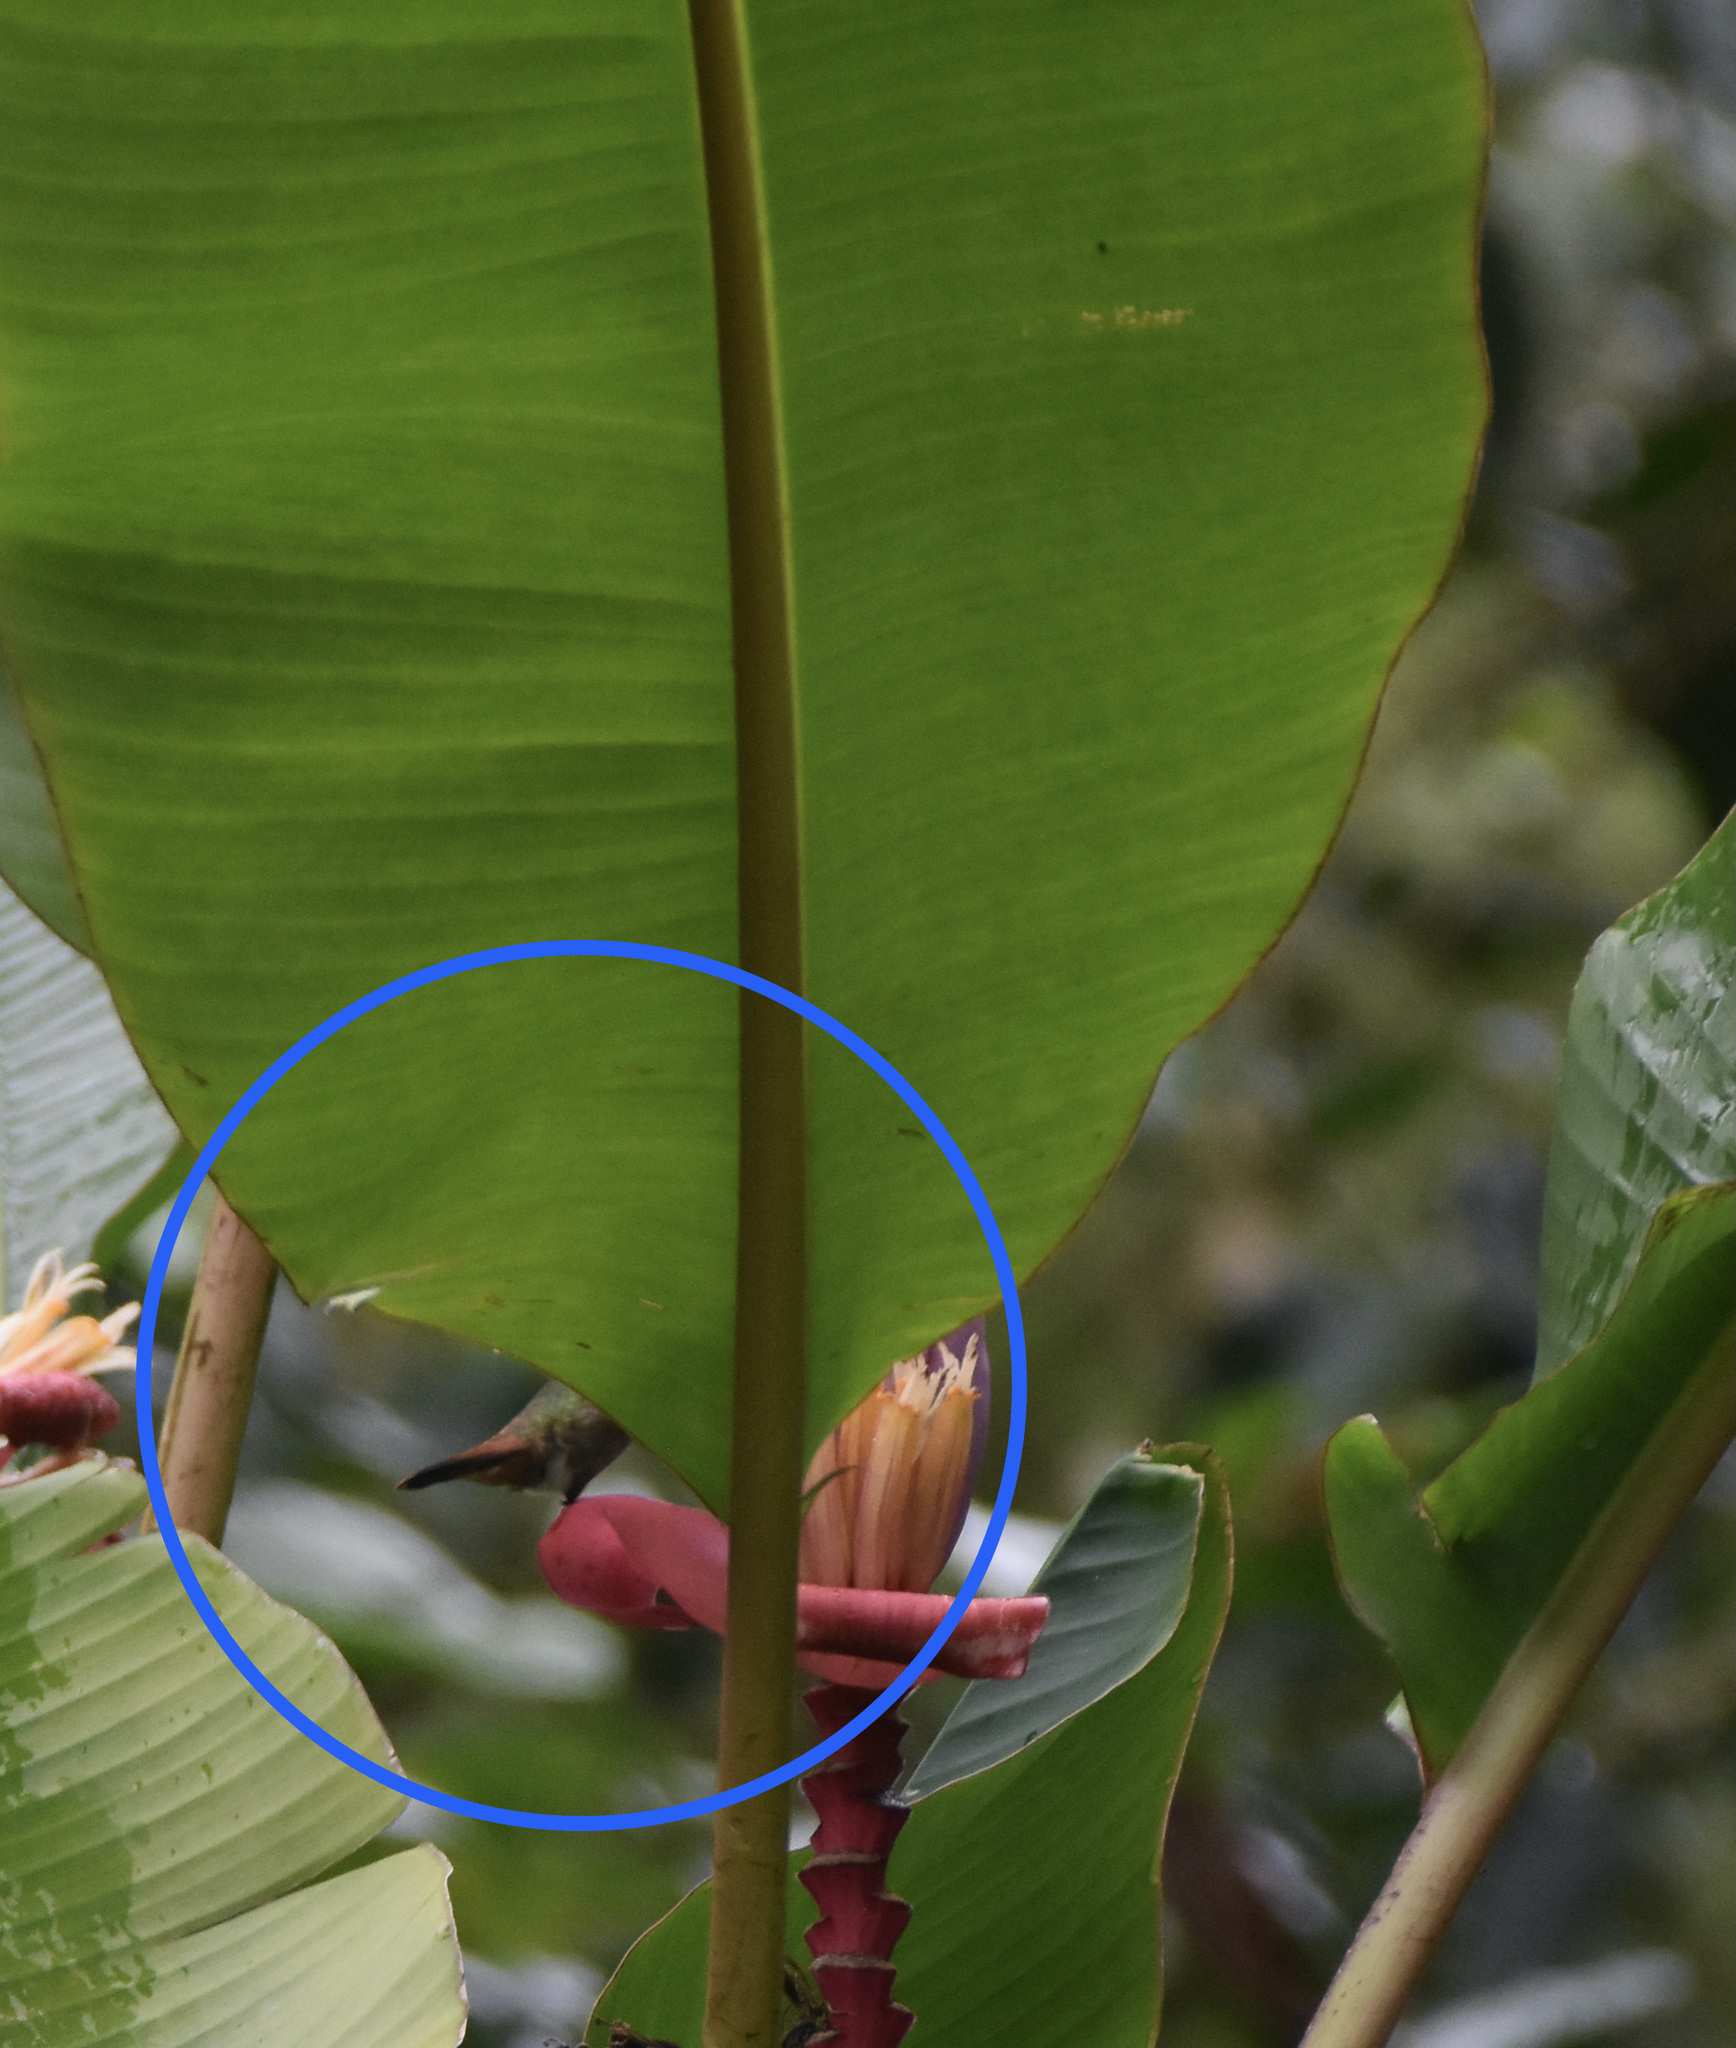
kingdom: Animalia
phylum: Chordata
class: Aves
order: Apodiformes
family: Trochilidae
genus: Amazilia
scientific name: Amazilia tzacatl
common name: Rufous-tailed hummingbird
